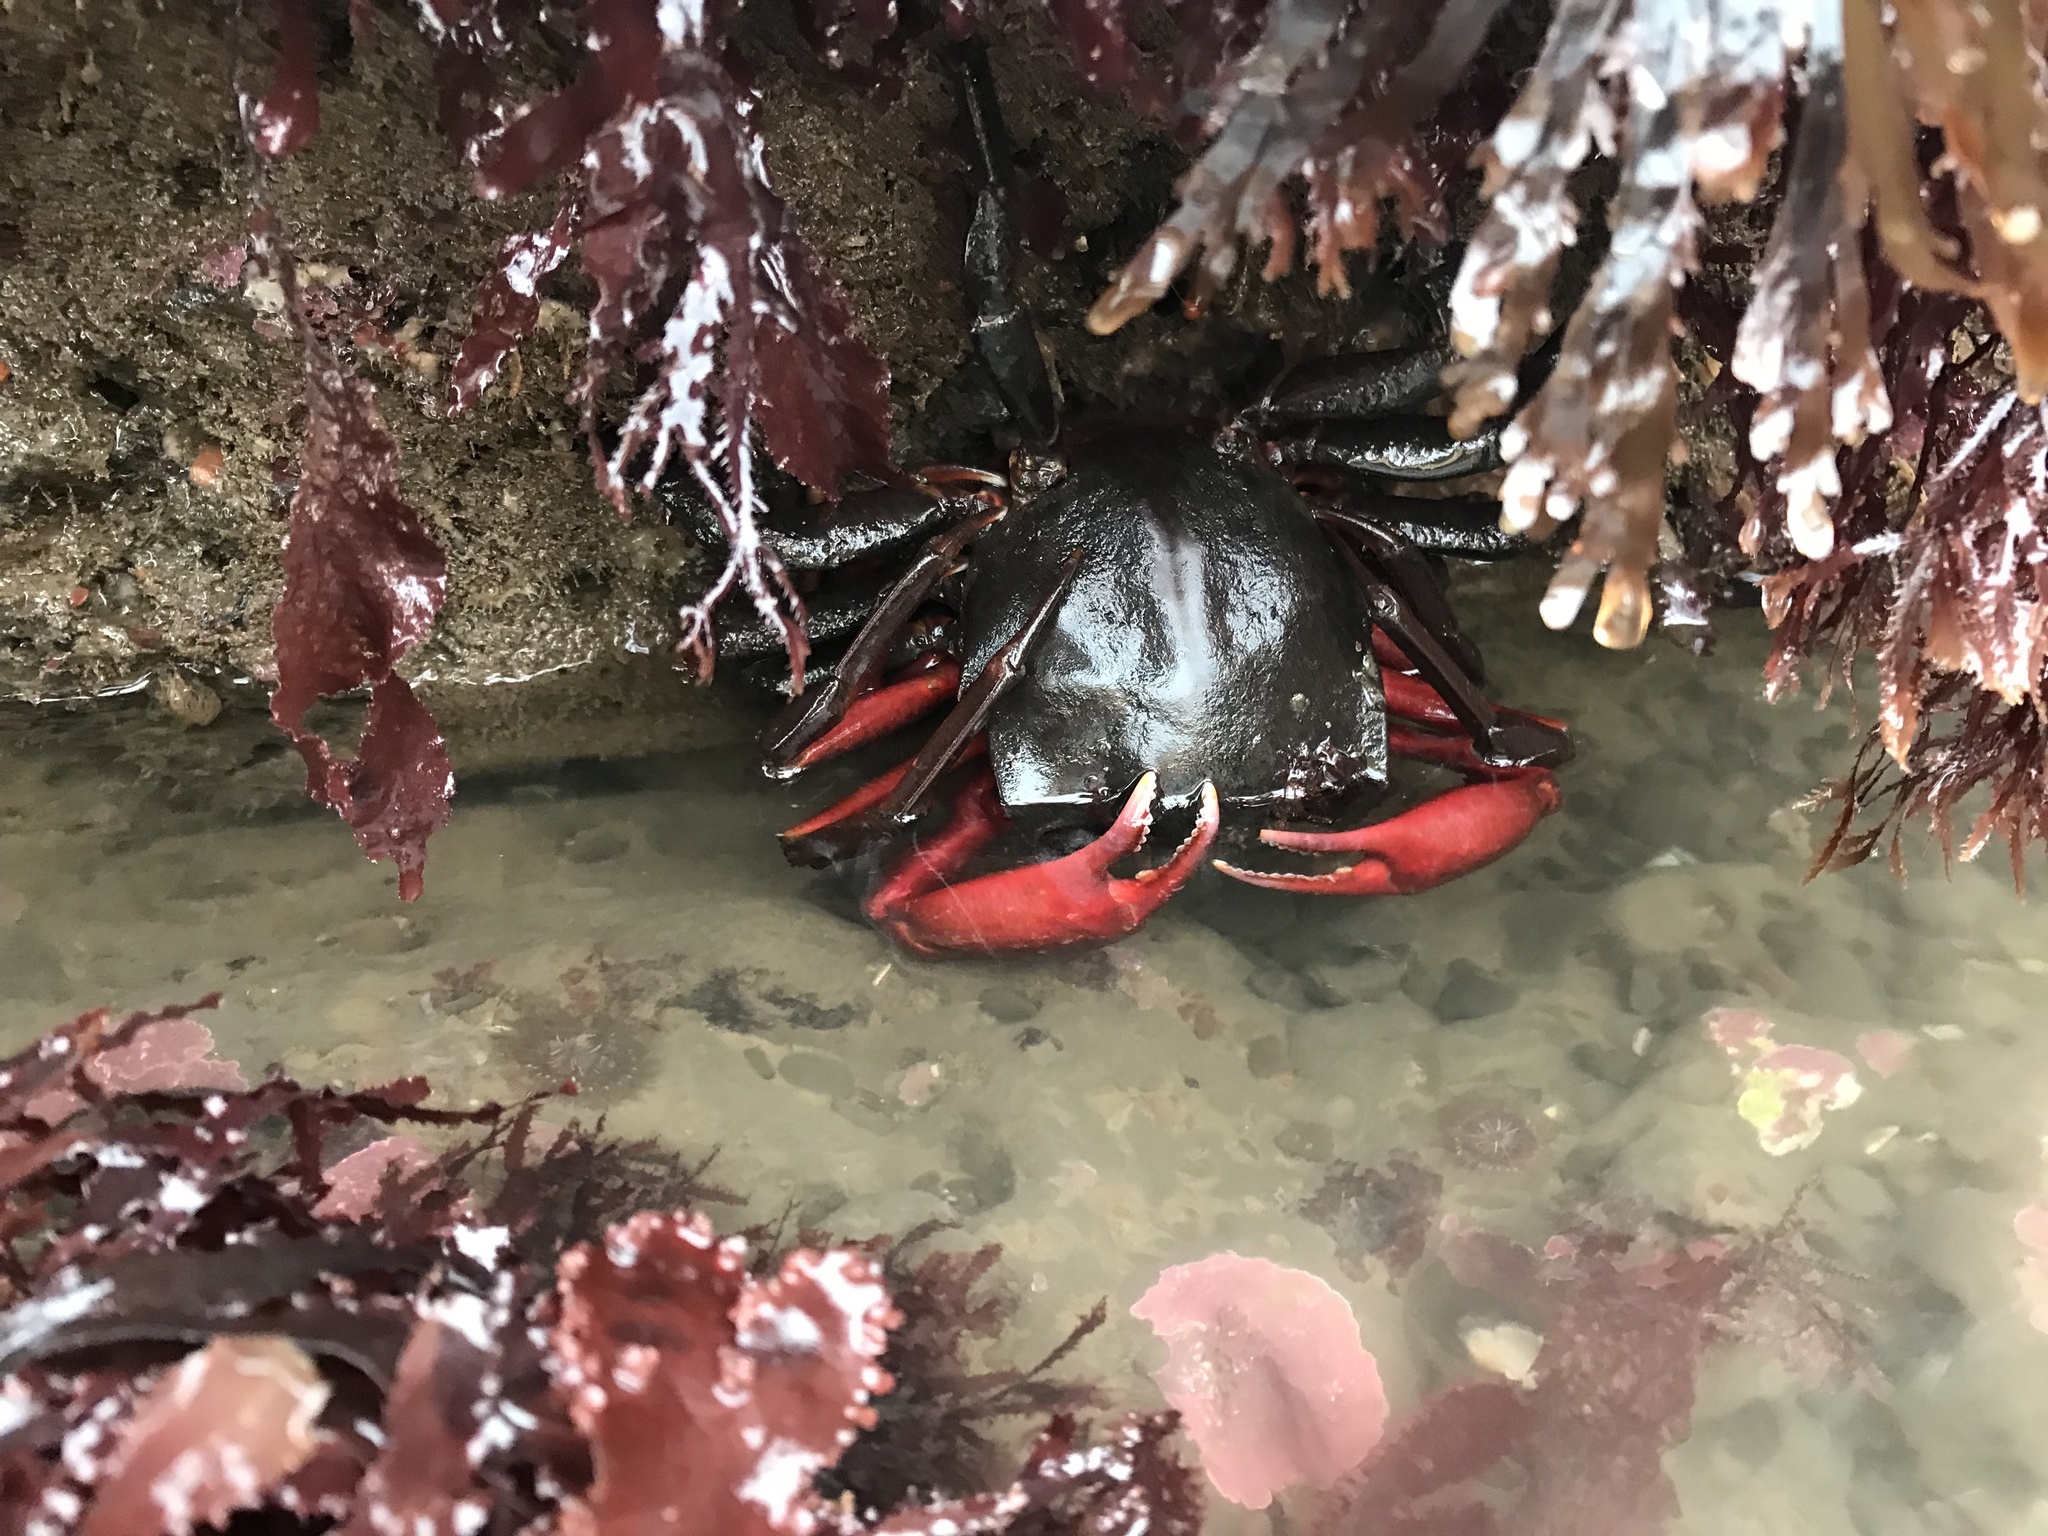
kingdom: Animalia
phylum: Arthropoda
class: Malacostraca
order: Decapoda
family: Epialtidae
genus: Pugettia
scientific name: Pugettia producta
